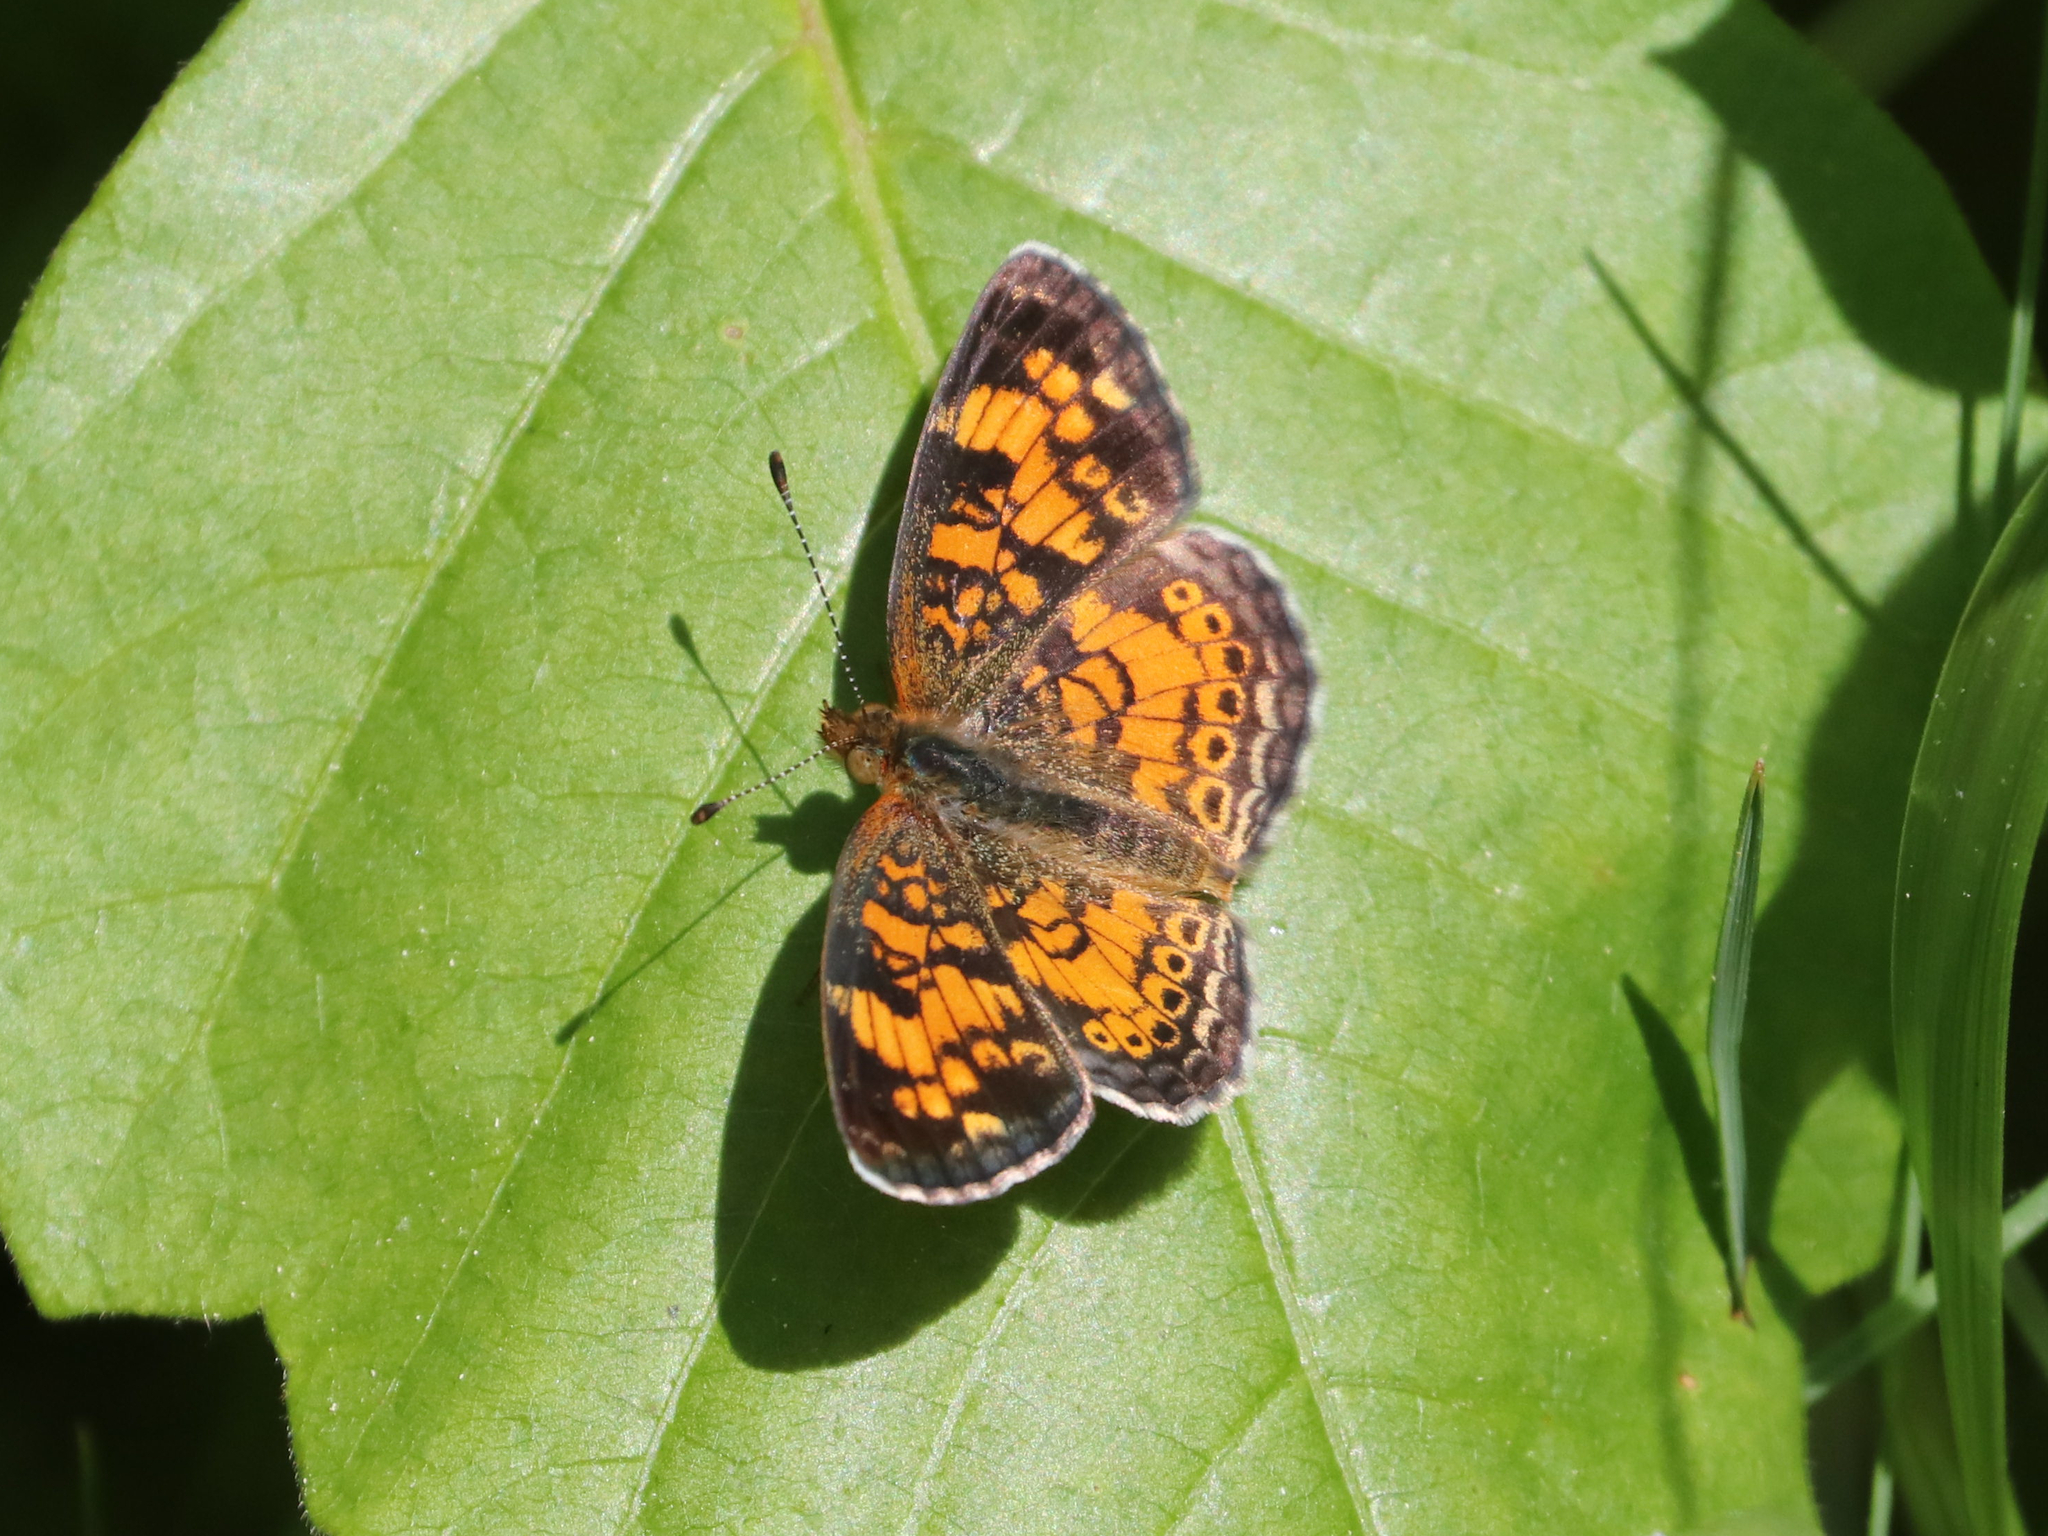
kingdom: Animalia
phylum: Arthropoda
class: Insecta
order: Lepidoptera
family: Nymphalidae
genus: Phyciodes
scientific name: Phyciodes tharos
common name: Pearl crescent
